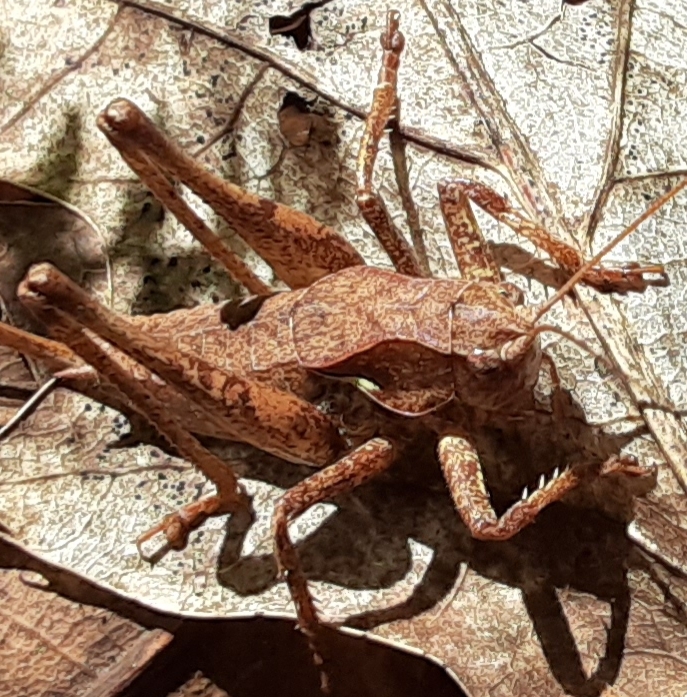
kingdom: Animalia
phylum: Arthropoda
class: Insecta
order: Orthoptera
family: Tettigoniidae
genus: Atlanticus
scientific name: Atlanticus davisi
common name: Davis's shield-bearer
